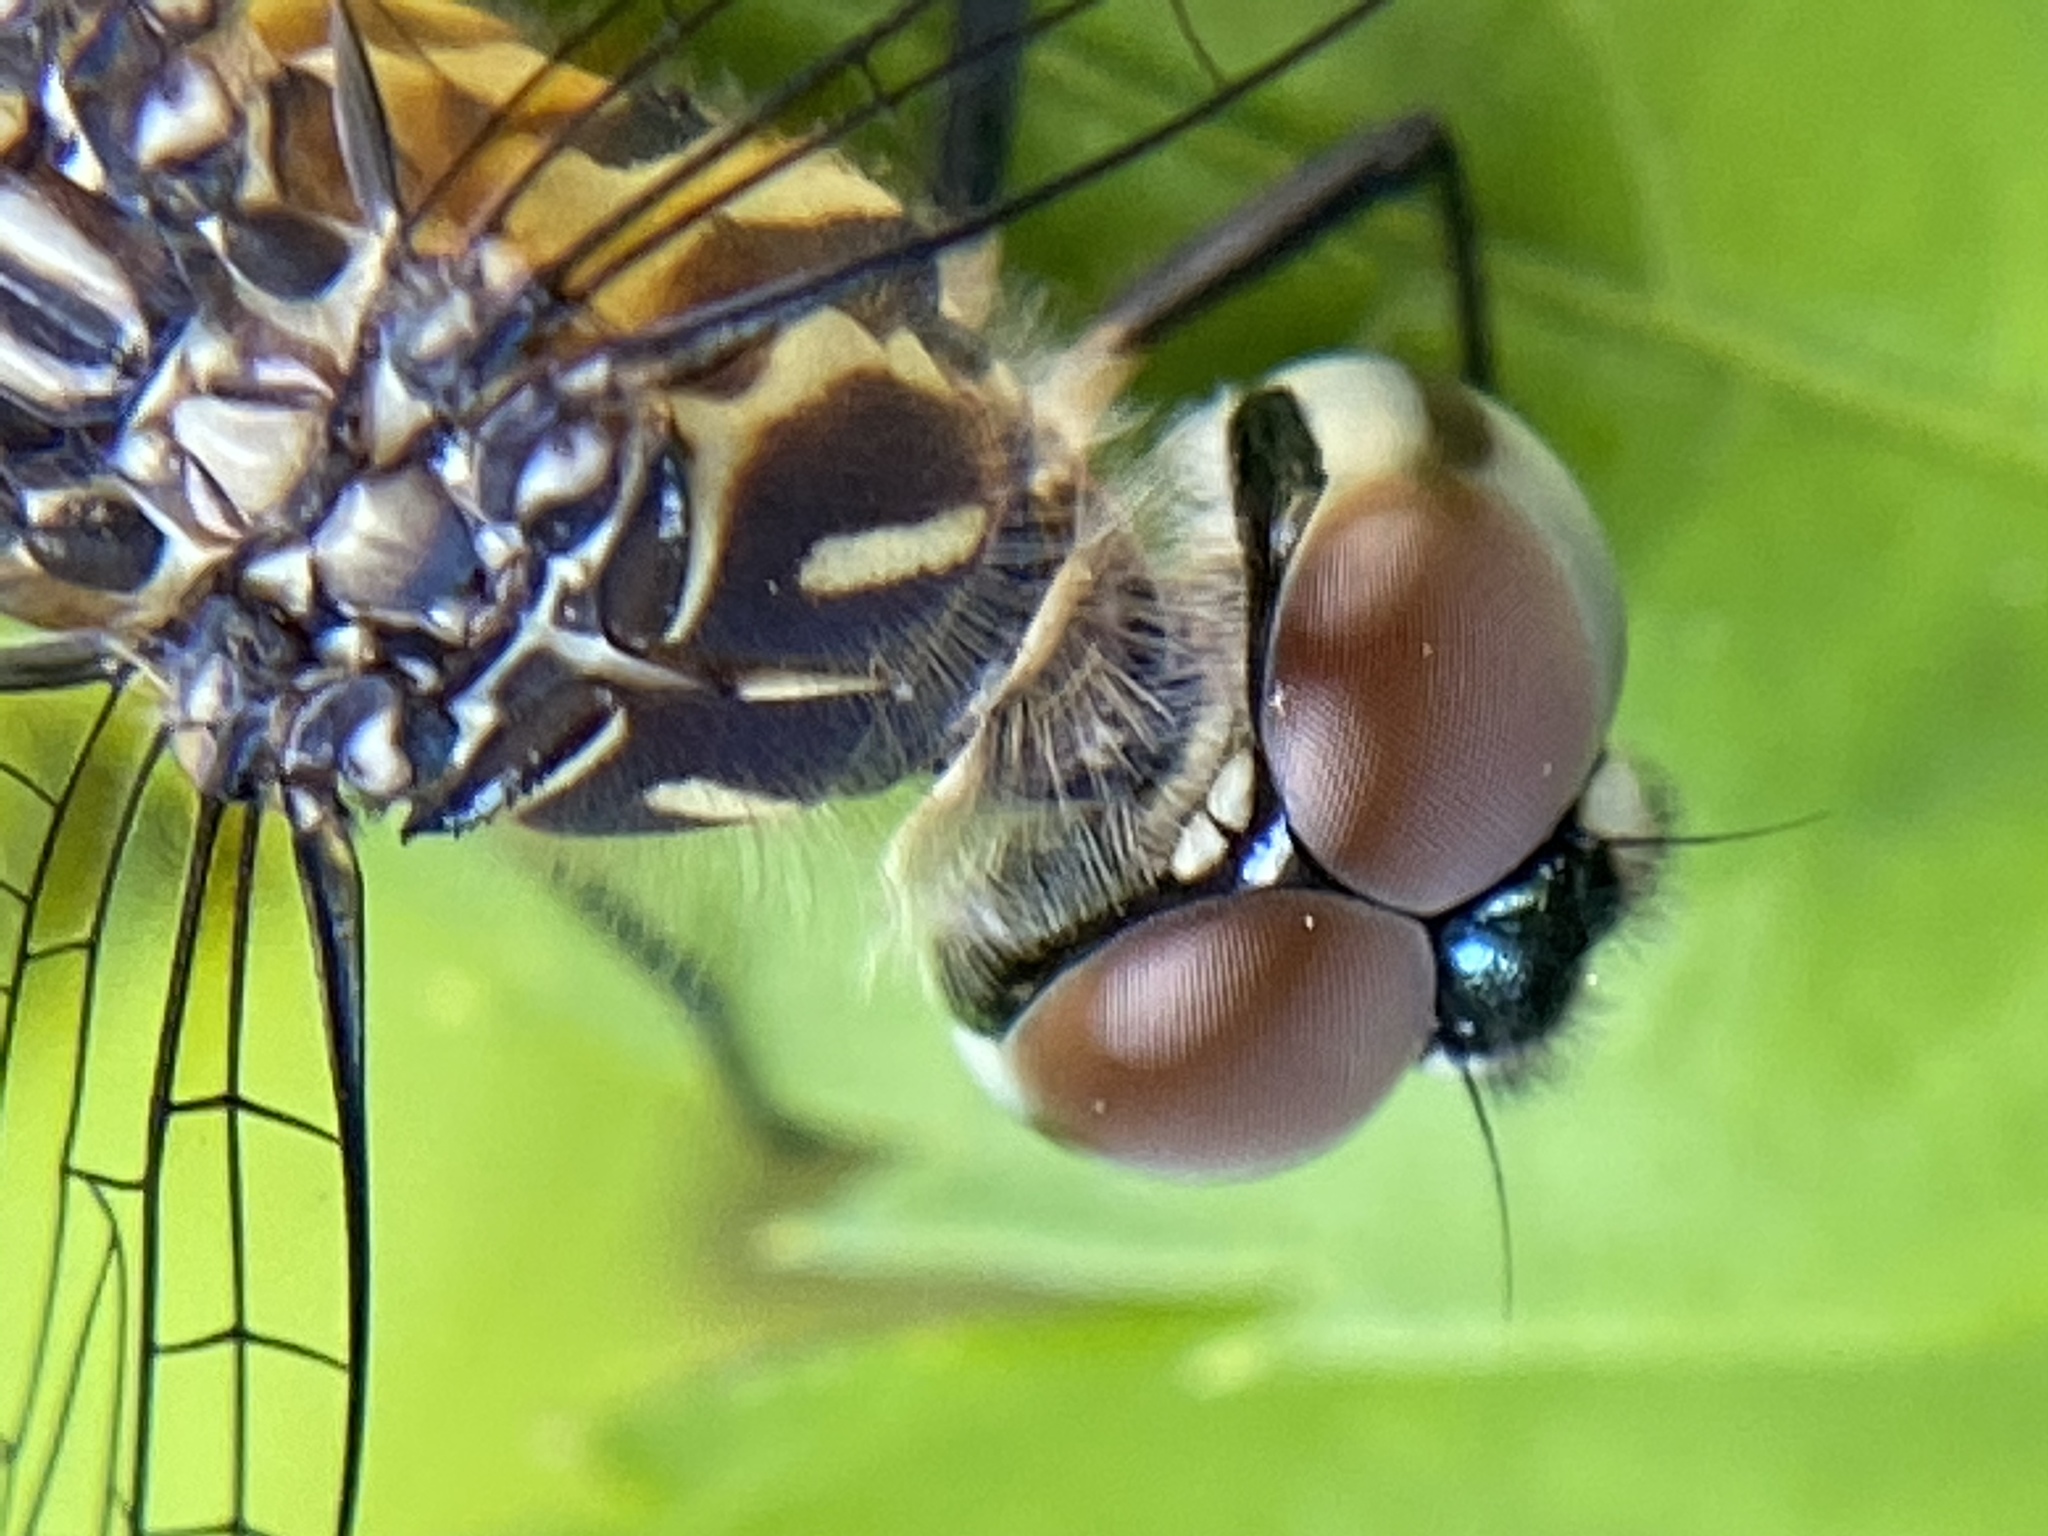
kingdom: Animalia
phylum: Arthropoda
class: Insecta
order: Odonata
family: Libellulidae
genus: Pachydiplax
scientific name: Pachydiplax longipennis
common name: Blue dasher
